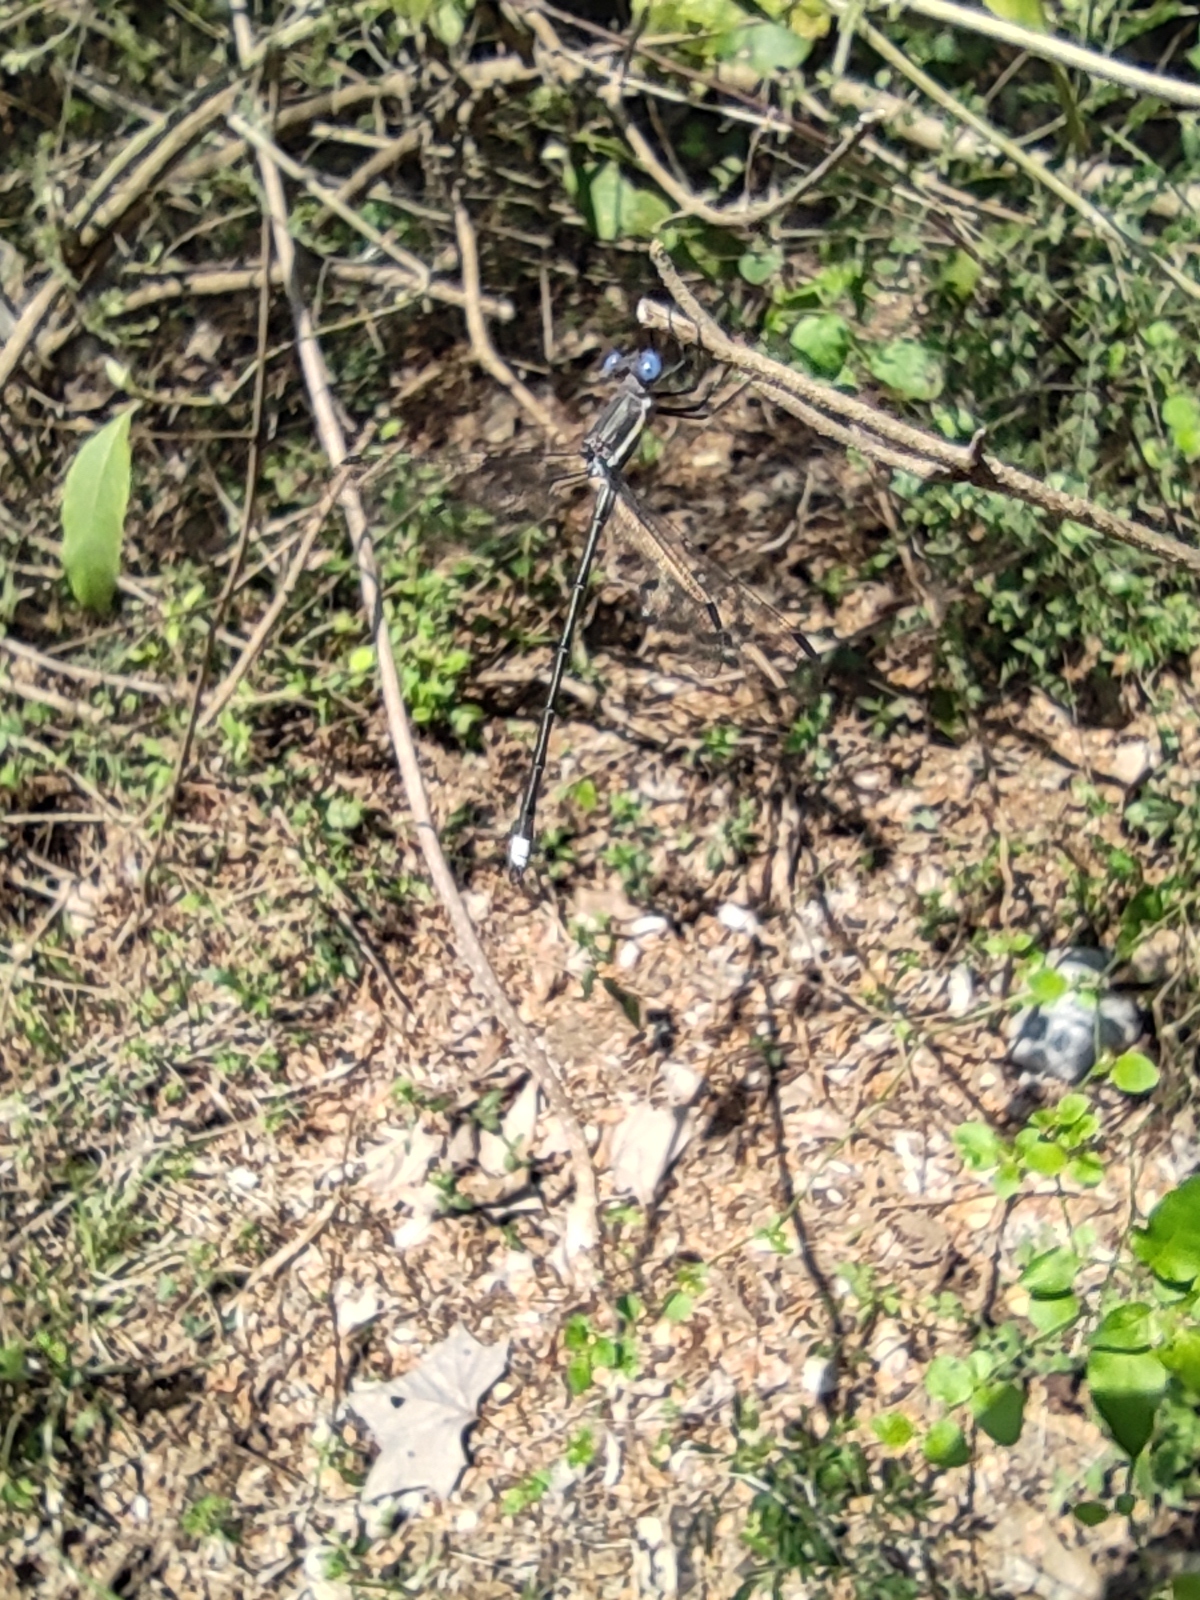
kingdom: Animalia
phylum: Arthropoda
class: Insecta
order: Odonata
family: Lestidae
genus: Archilestes
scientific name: Archilestes grandis
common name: Great spreadwing
